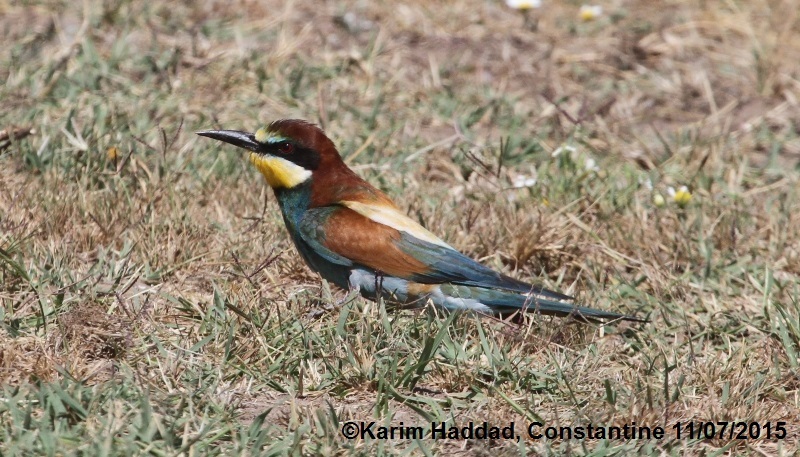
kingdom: Animalia
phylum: Chordata
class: Aves
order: Coraciiformes
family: Meropidae
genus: Merops
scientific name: Merops apiaster
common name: European bee-eater
